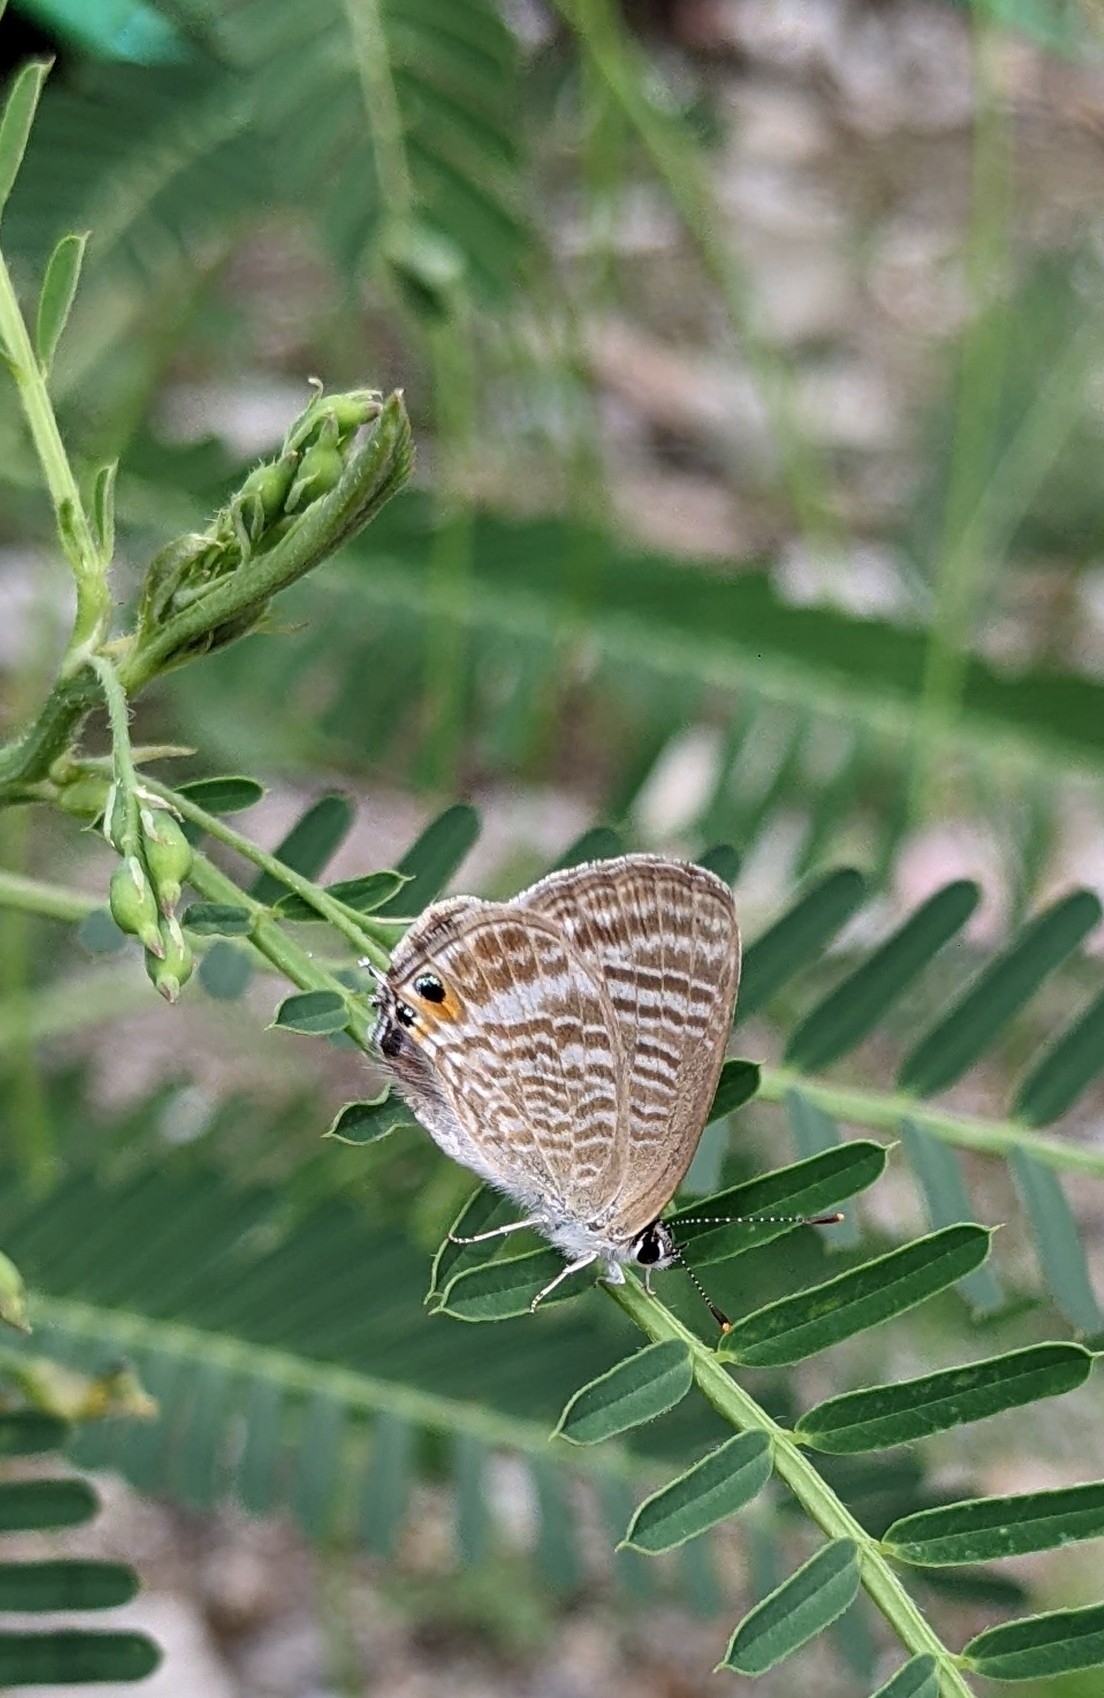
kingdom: Animalia
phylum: Arthropoda
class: Insecta
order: Lepidoptera
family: Lycaenidae
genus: Lampides
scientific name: Lampides boeticus
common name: Long-tailed blue
